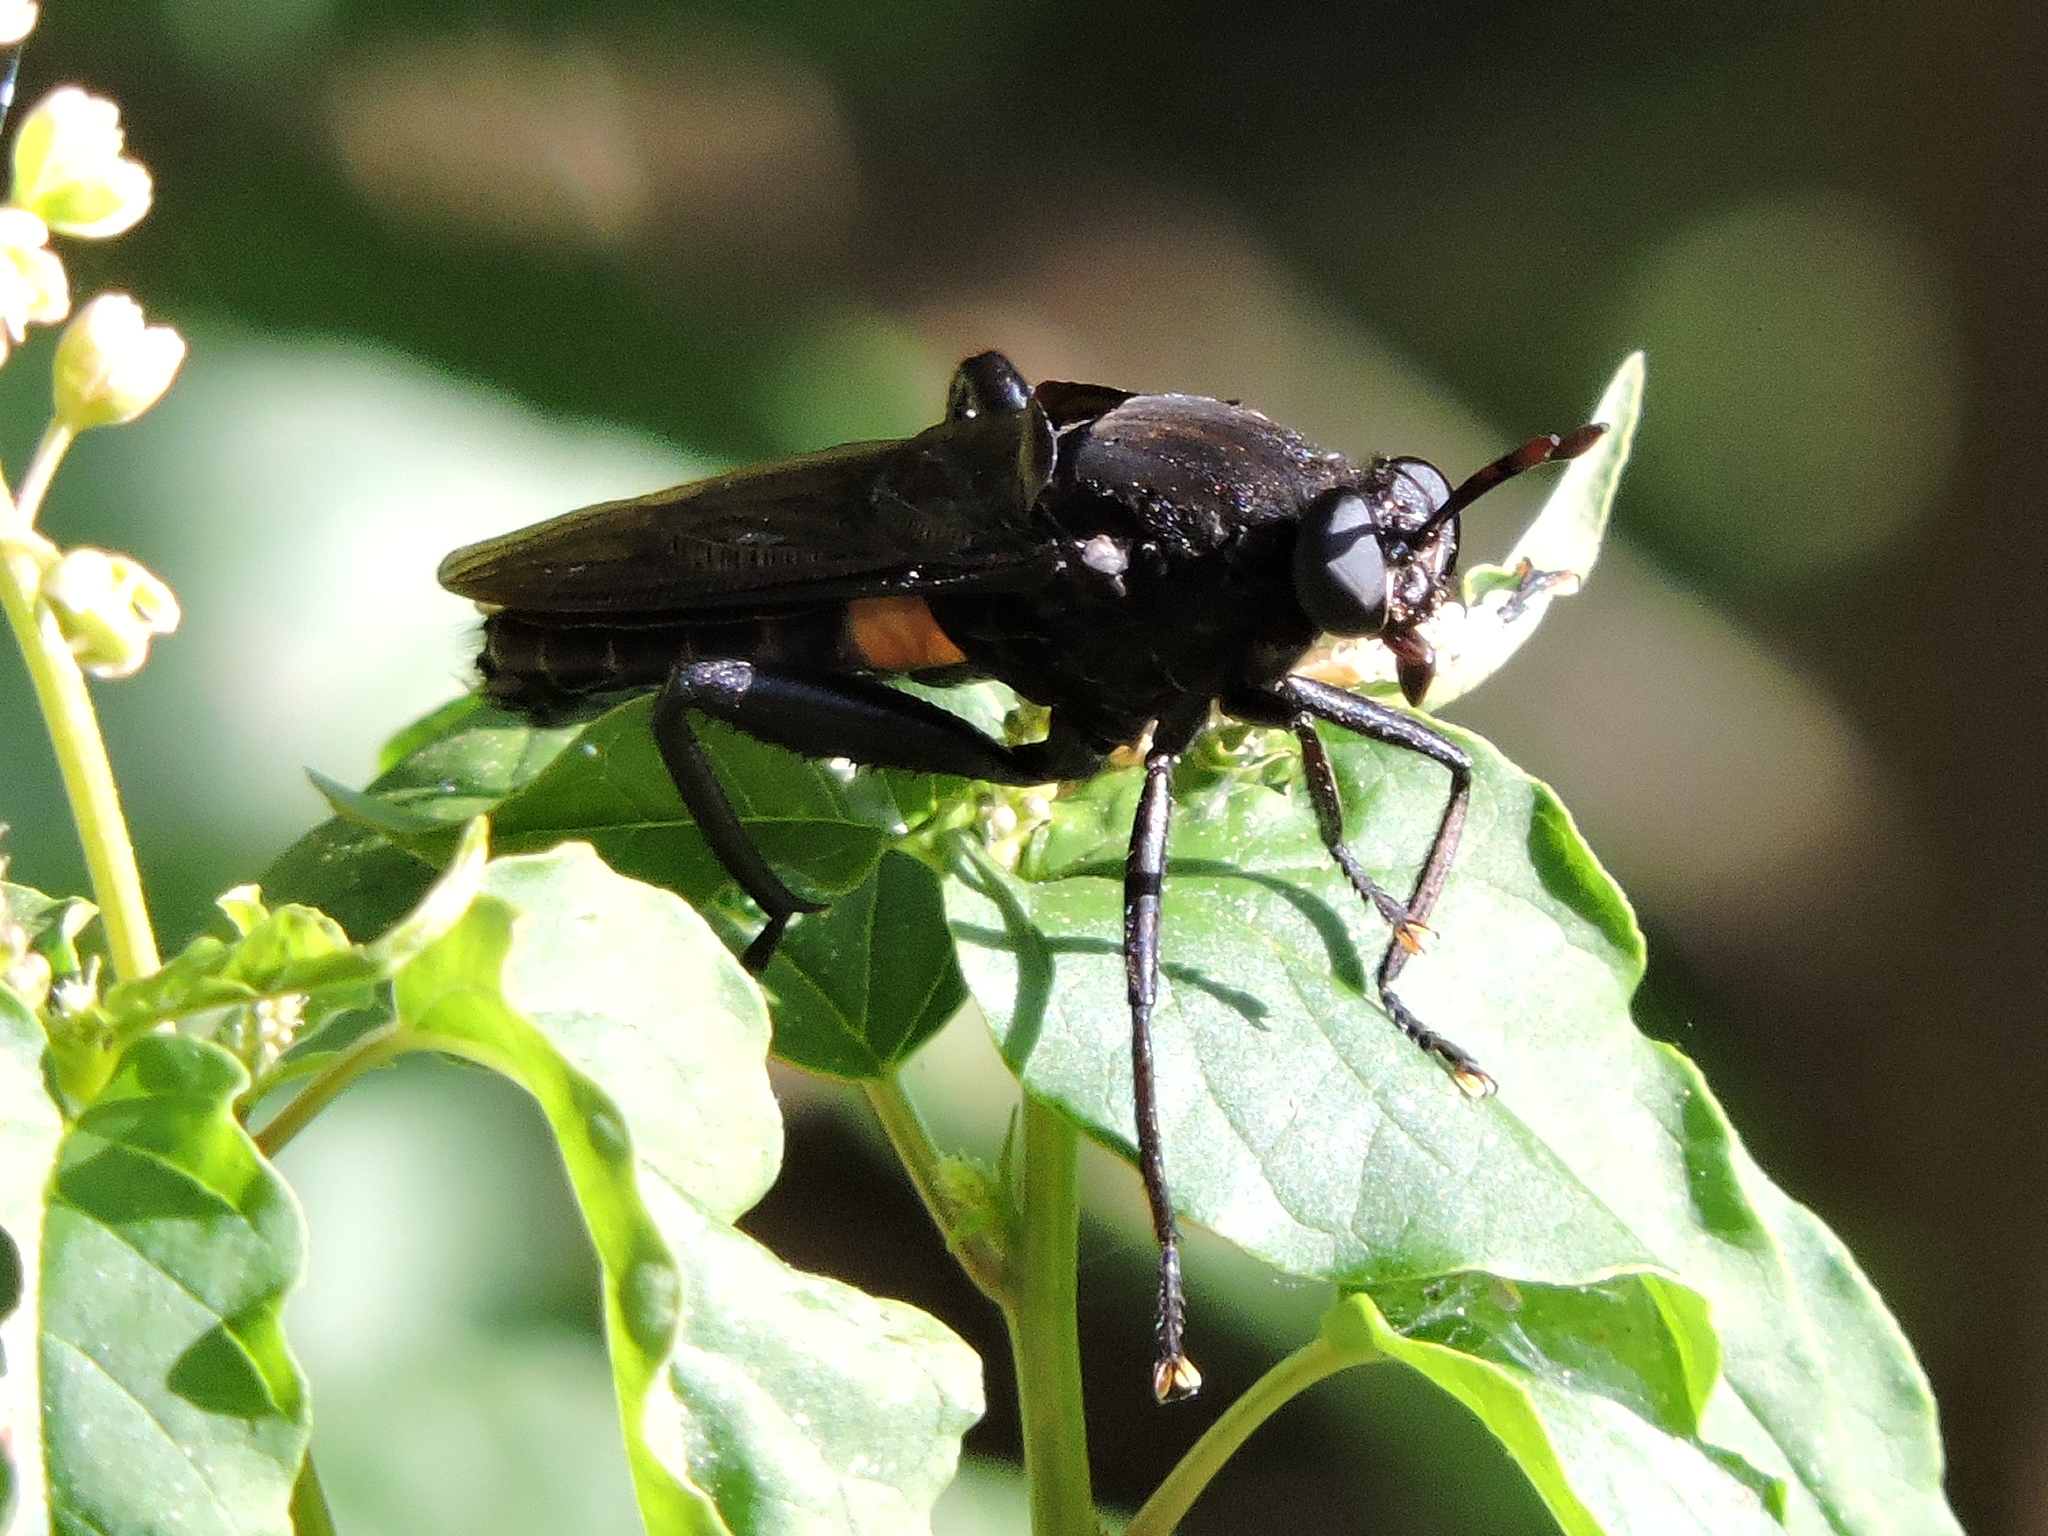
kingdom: Animalia
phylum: Arthropoda
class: Insecta
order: Diptera
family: Mydidae
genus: Mydas
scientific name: Mydas clavatus
